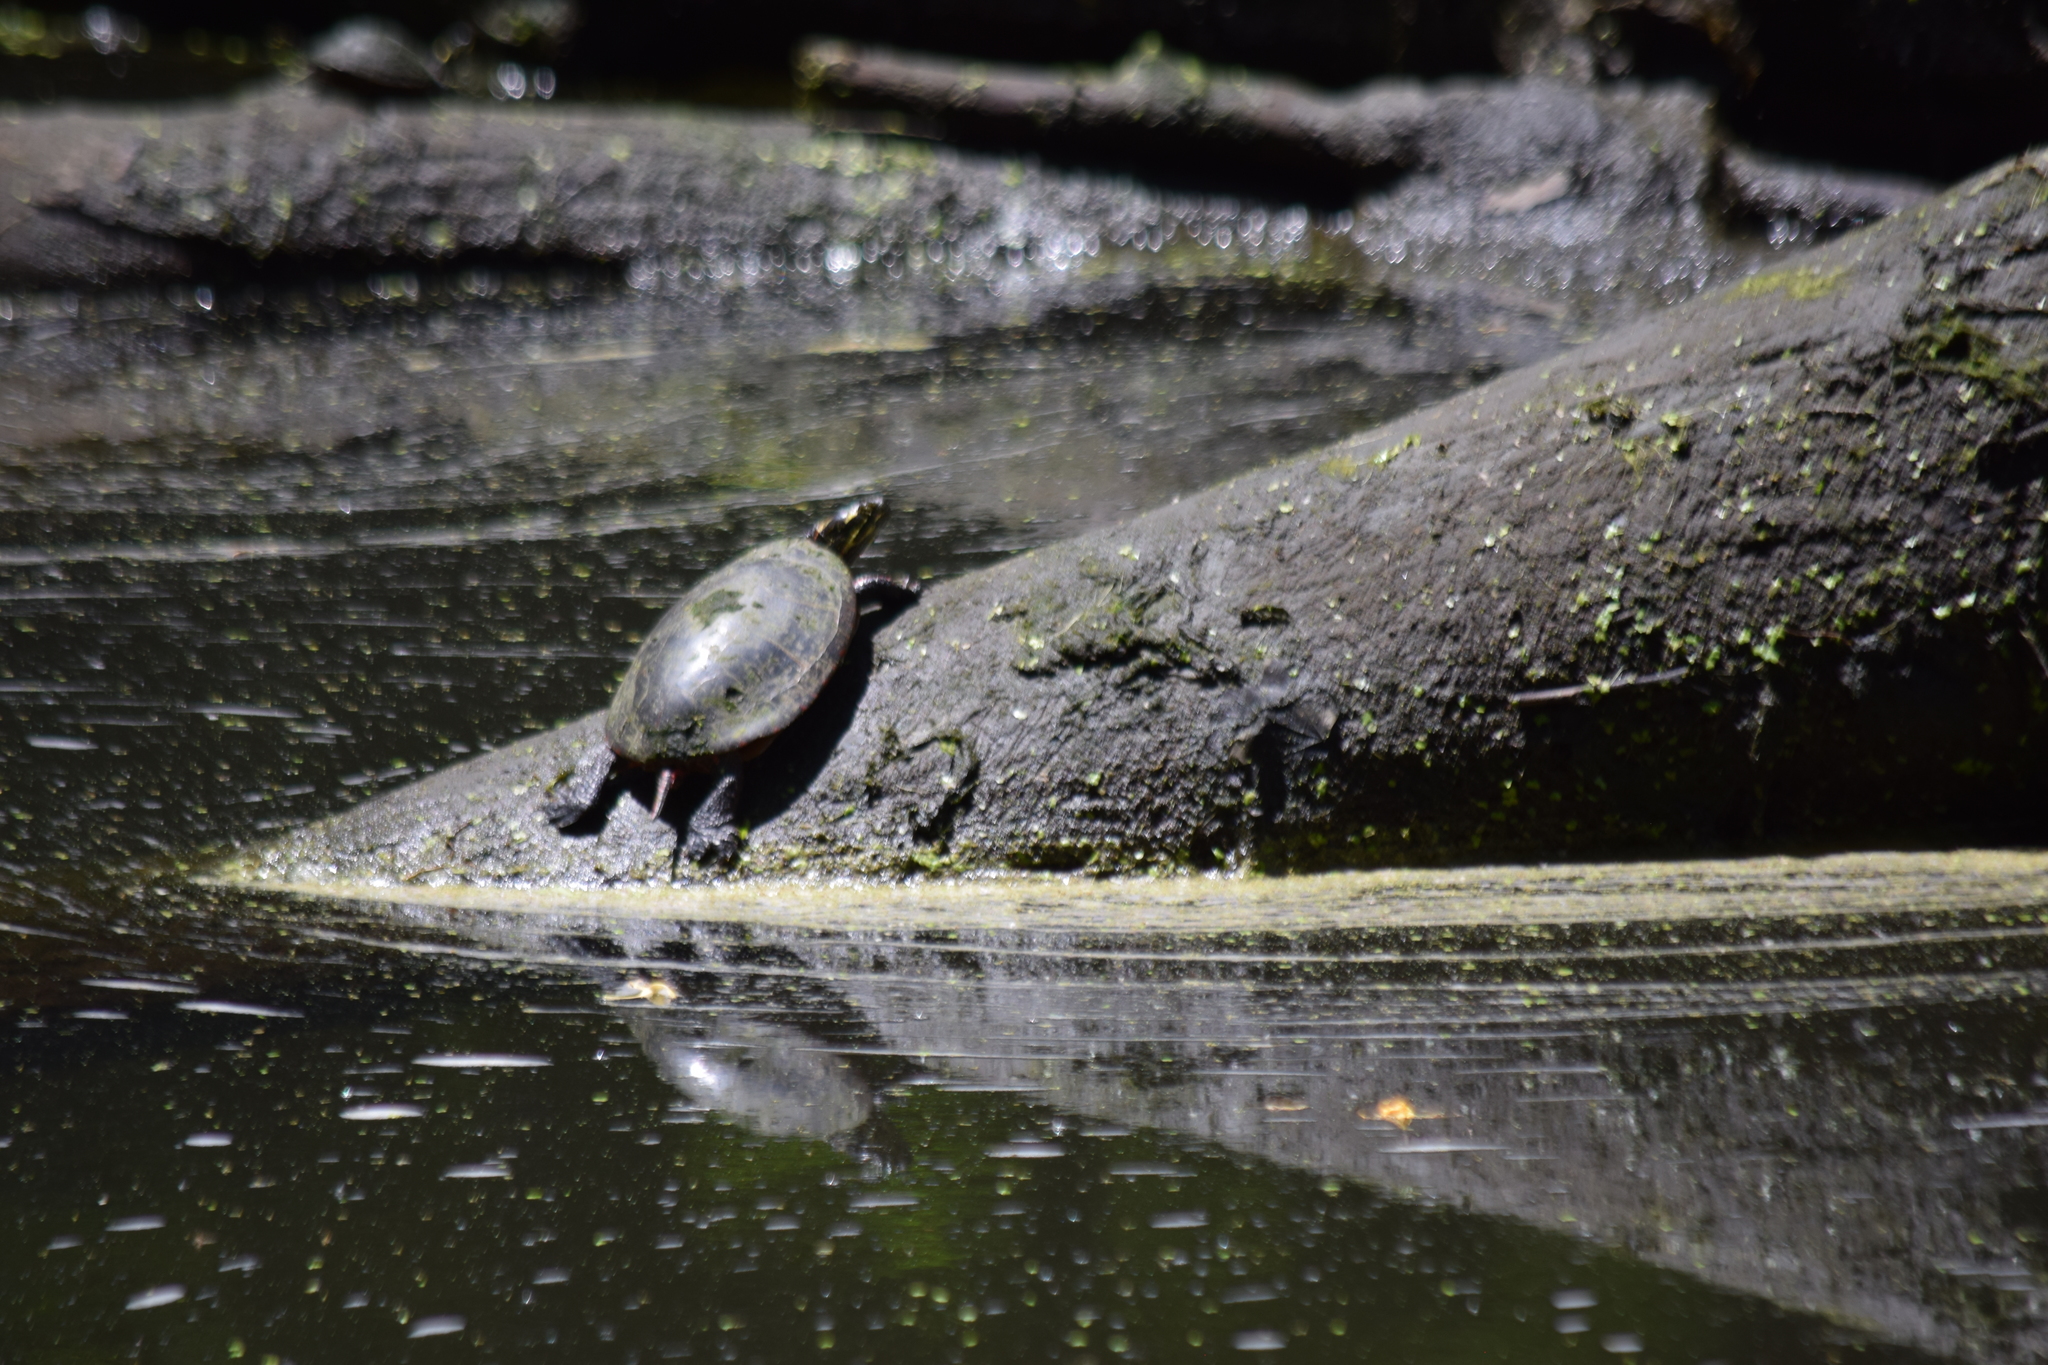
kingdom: Animalia
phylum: Chordata
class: Testudines
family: Emydidae
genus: Chrysemys
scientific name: Chrysemys picta
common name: Painted turtle
